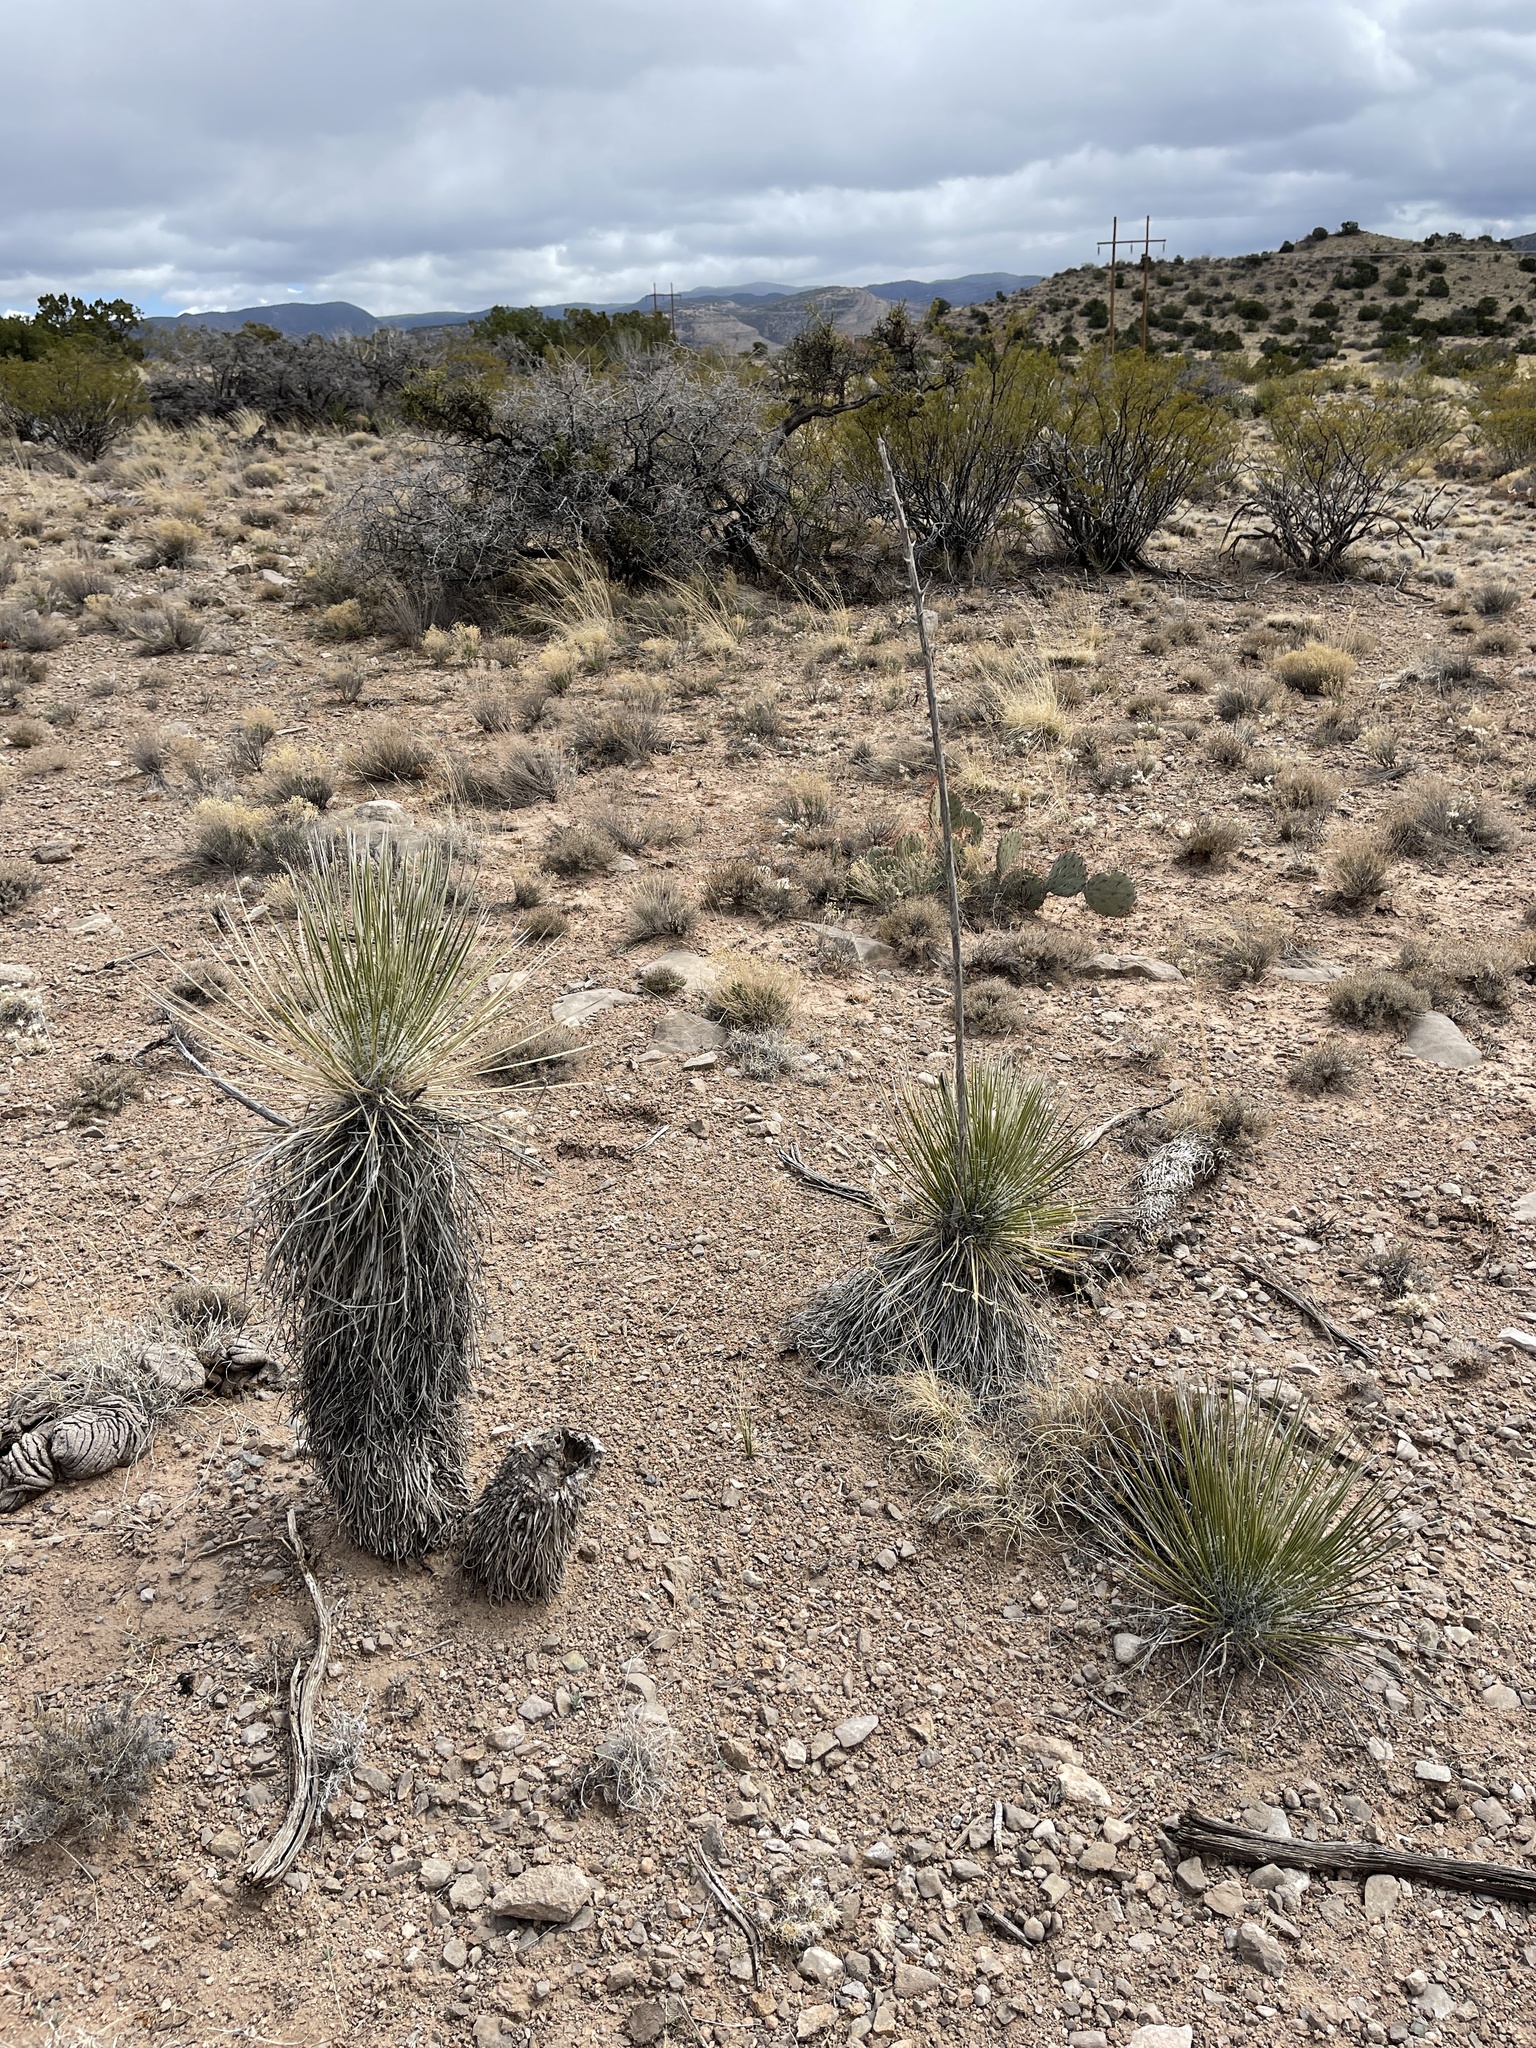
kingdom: Plantae
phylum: Tracheophyta
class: Liliopsida
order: Asparagales
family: Asparagaceae
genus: Yucca
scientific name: Yucca elata
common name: Palmella
